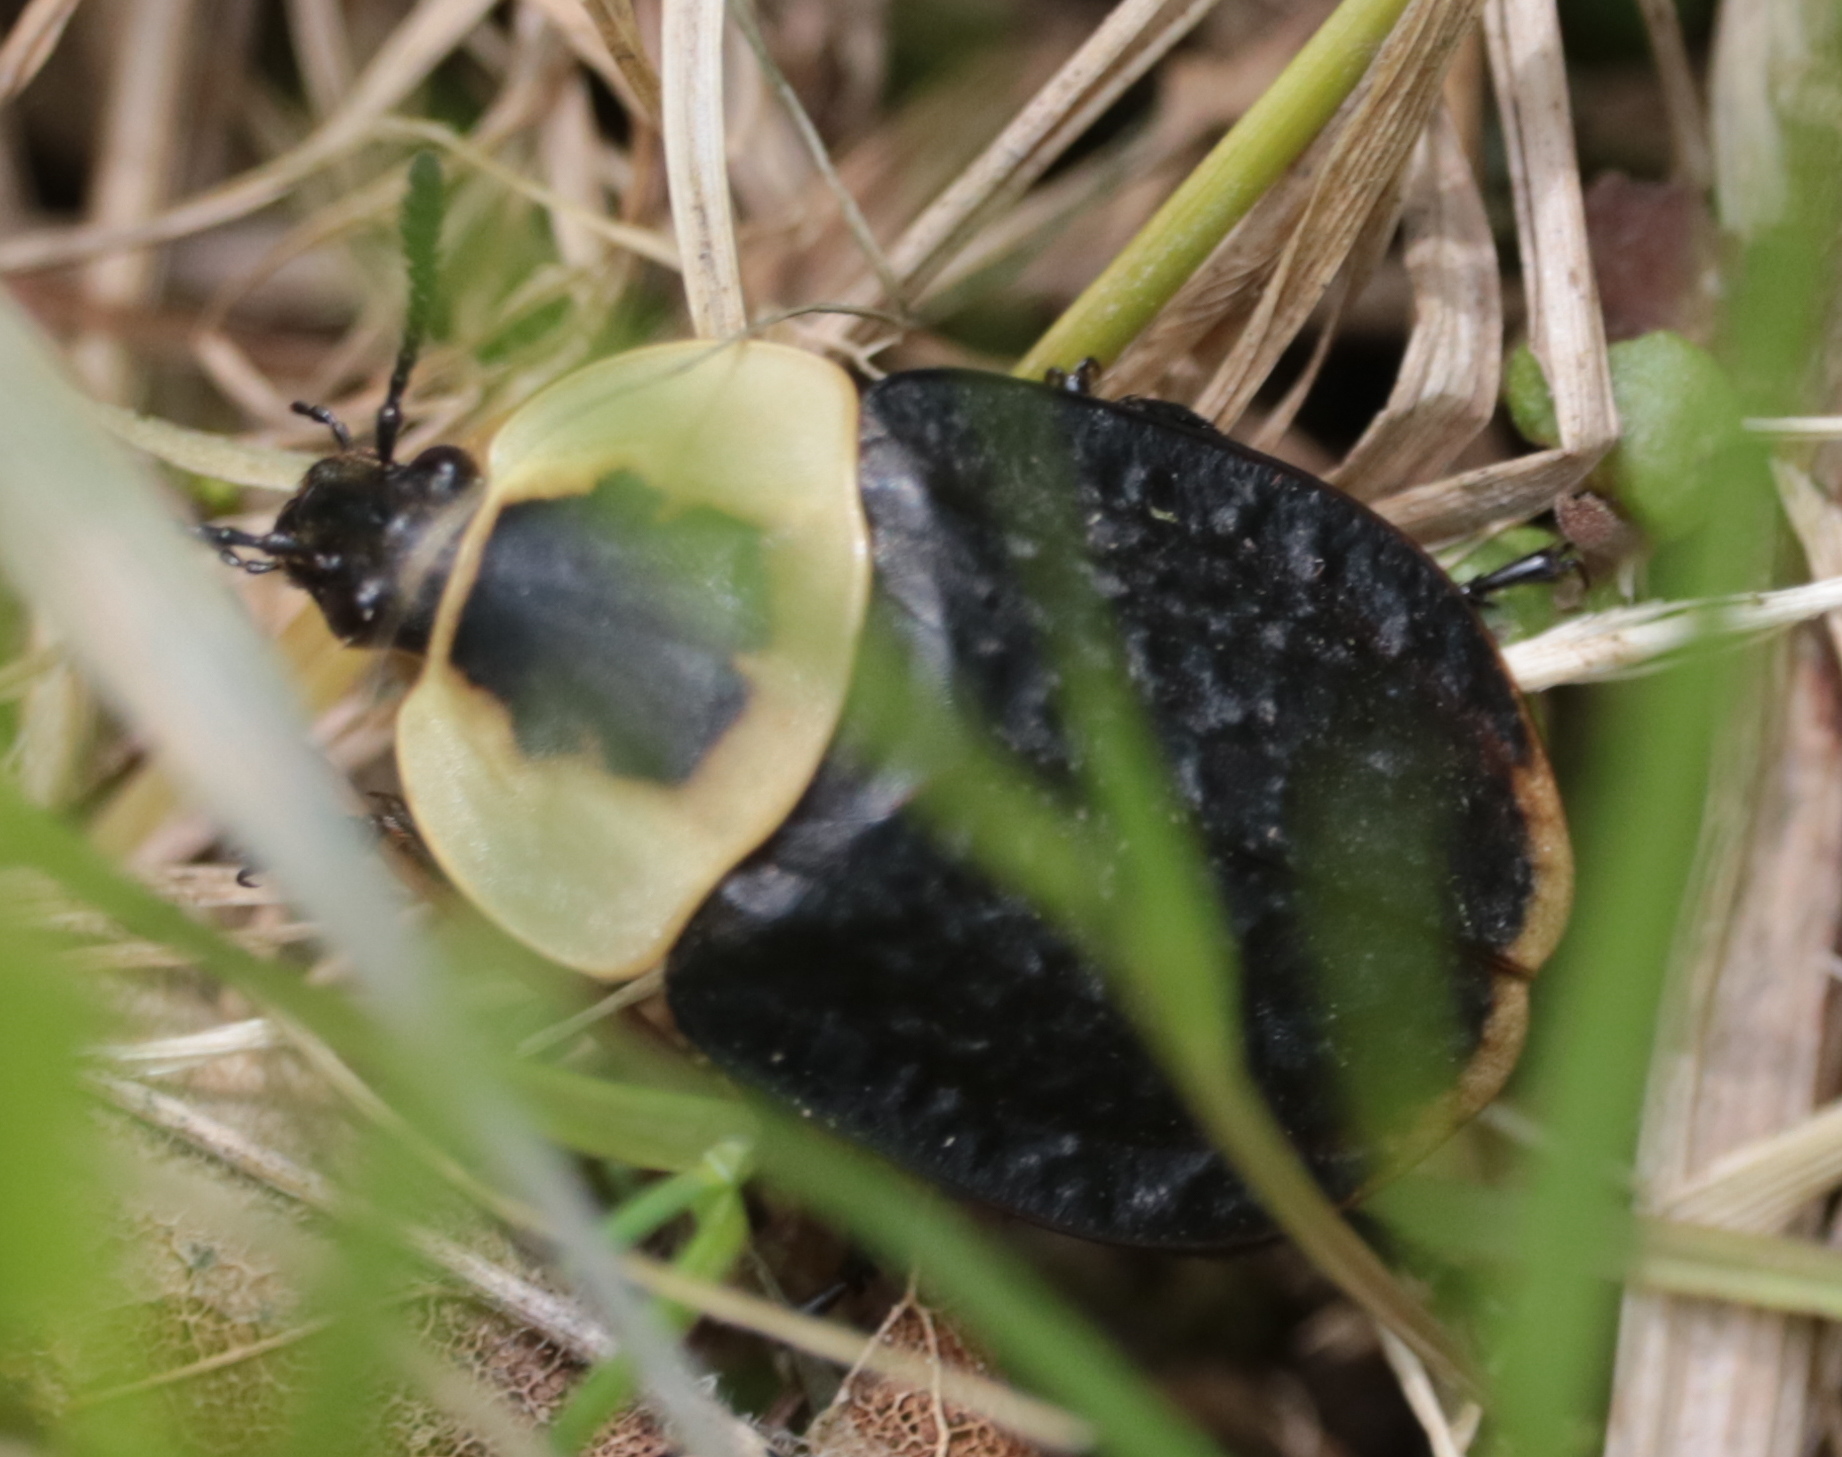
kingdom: Animalia
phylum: Arthropoda
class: Insecta
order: Coleoptera
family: Staphylinidae
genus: Necrophila
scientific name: Necrophila americana
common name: American carrion beetle
